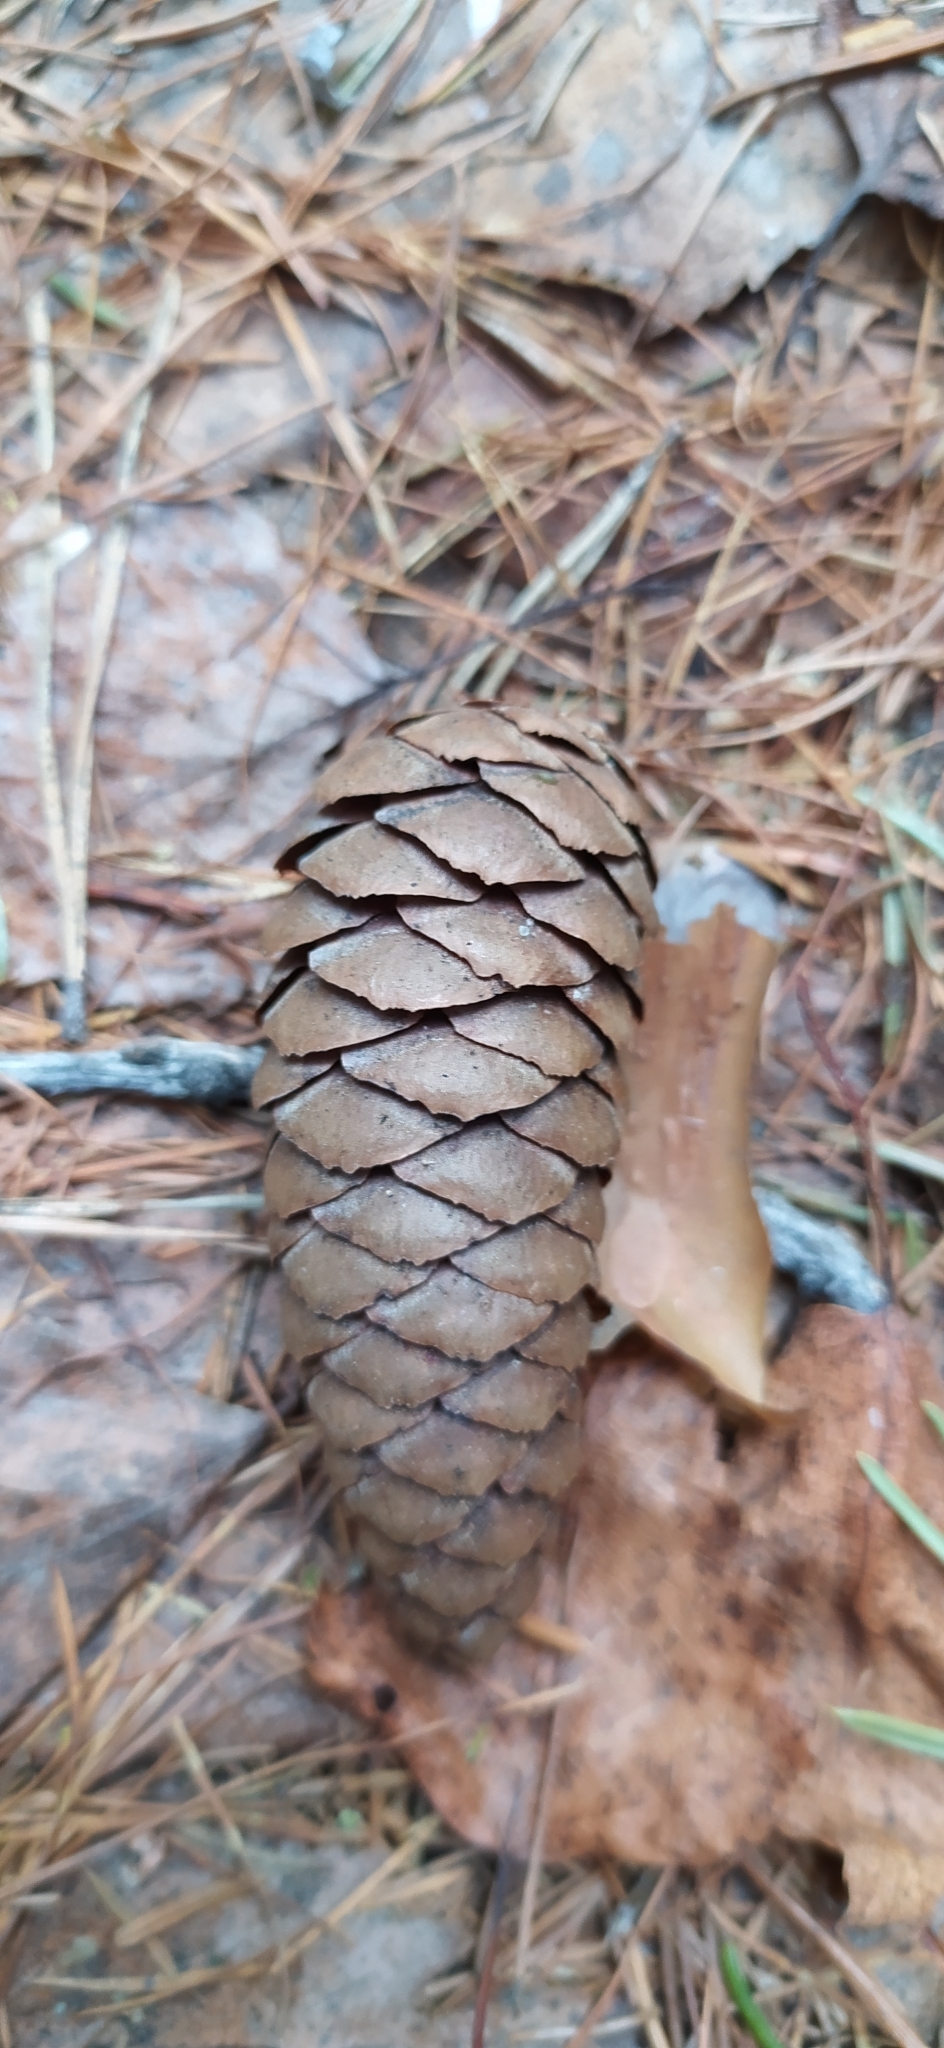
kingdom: Plantae
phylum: Tracheophyta
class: Pinopsida
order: Pinales
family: Pinaceae
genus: Picea
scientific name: Picea fennica
